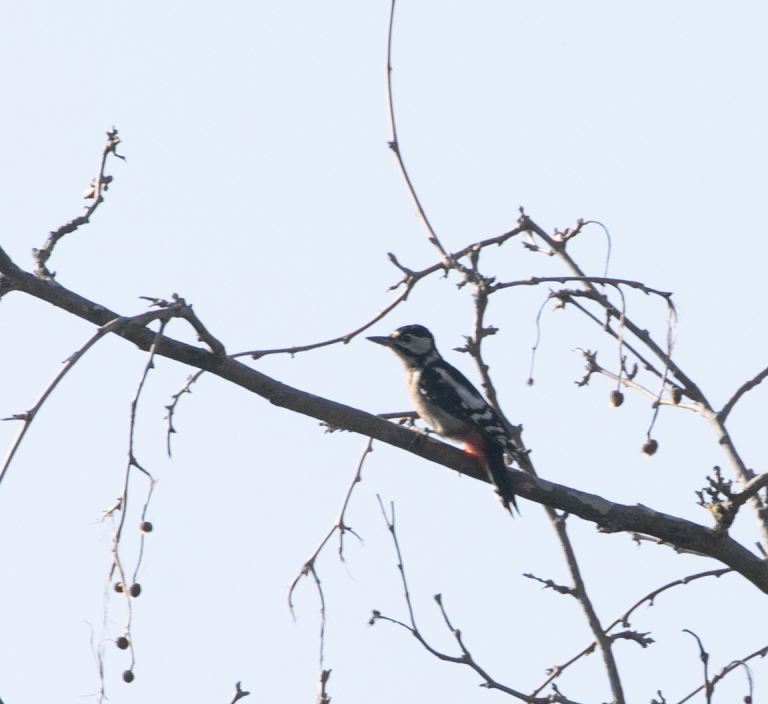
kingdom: Animalia
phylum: Chordata
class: Aves
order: Piciformes
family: Picidae
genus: Dendrocopos
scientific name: Dendrocopos major
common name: Great spotted woodpecker
